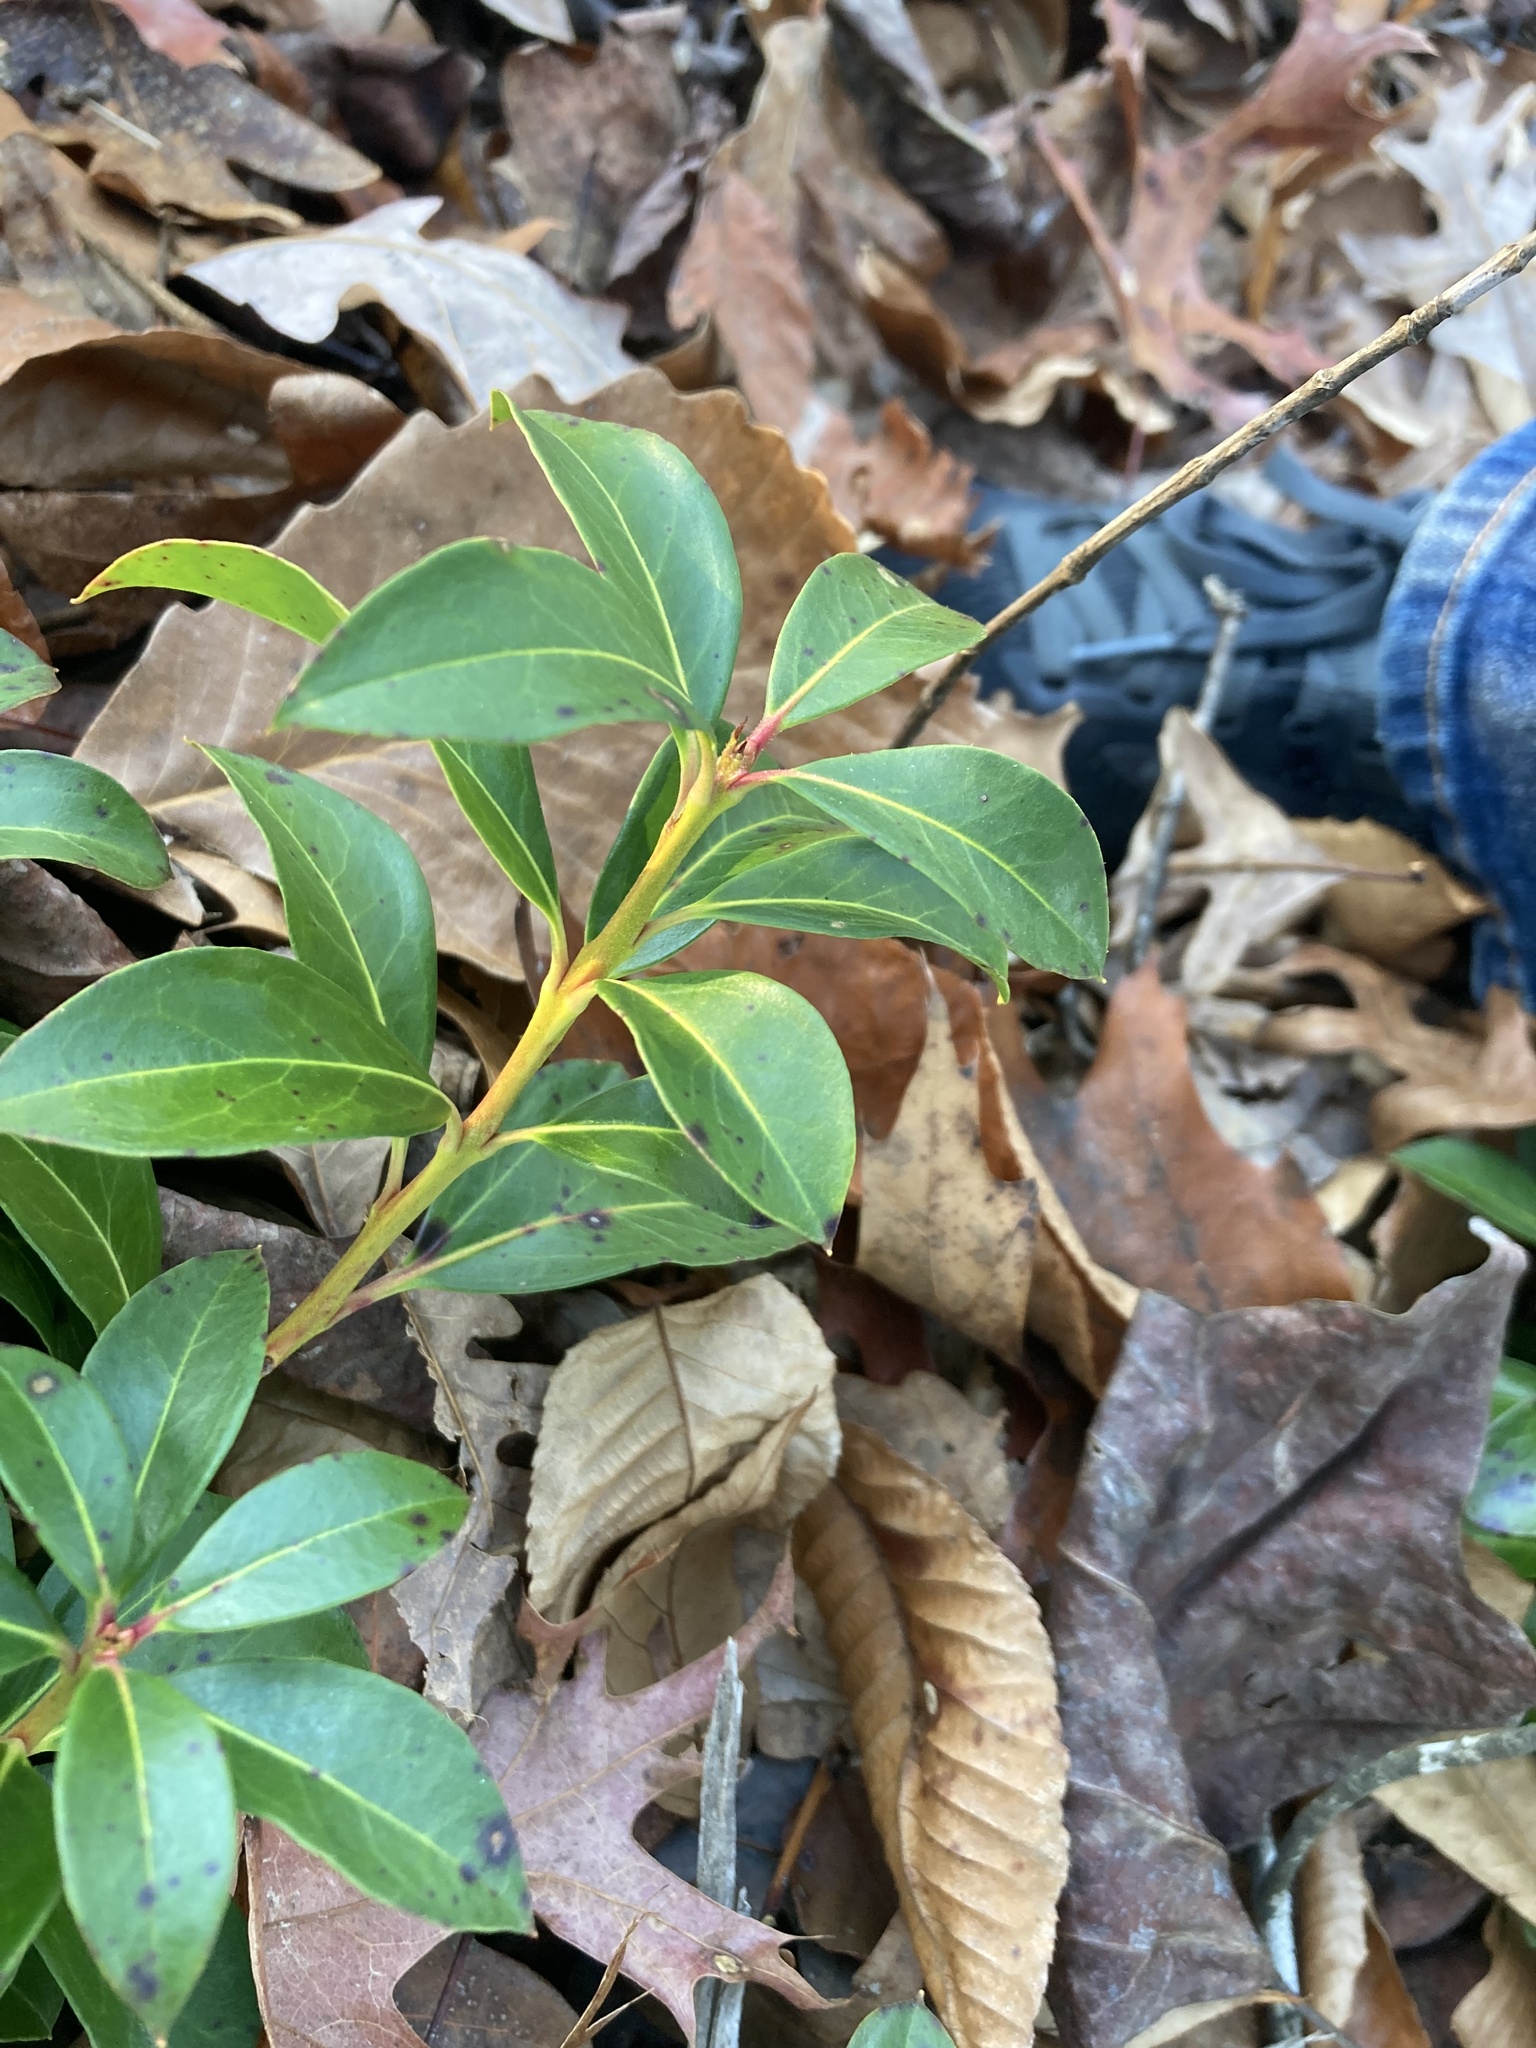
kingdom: Plantae
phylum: Tracheophyta
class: Magnoliopsida
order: Ericales
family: Ericaceae
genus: Kalmia
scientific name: Kalmia latifolia
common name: Mountain-laurel
